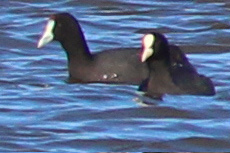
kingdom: Animalia
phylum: Chordata
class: Aves
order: Gruiformes
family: Rallidae
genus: Fulica
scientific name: Fulica cristata
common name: Red-knobbed coot
